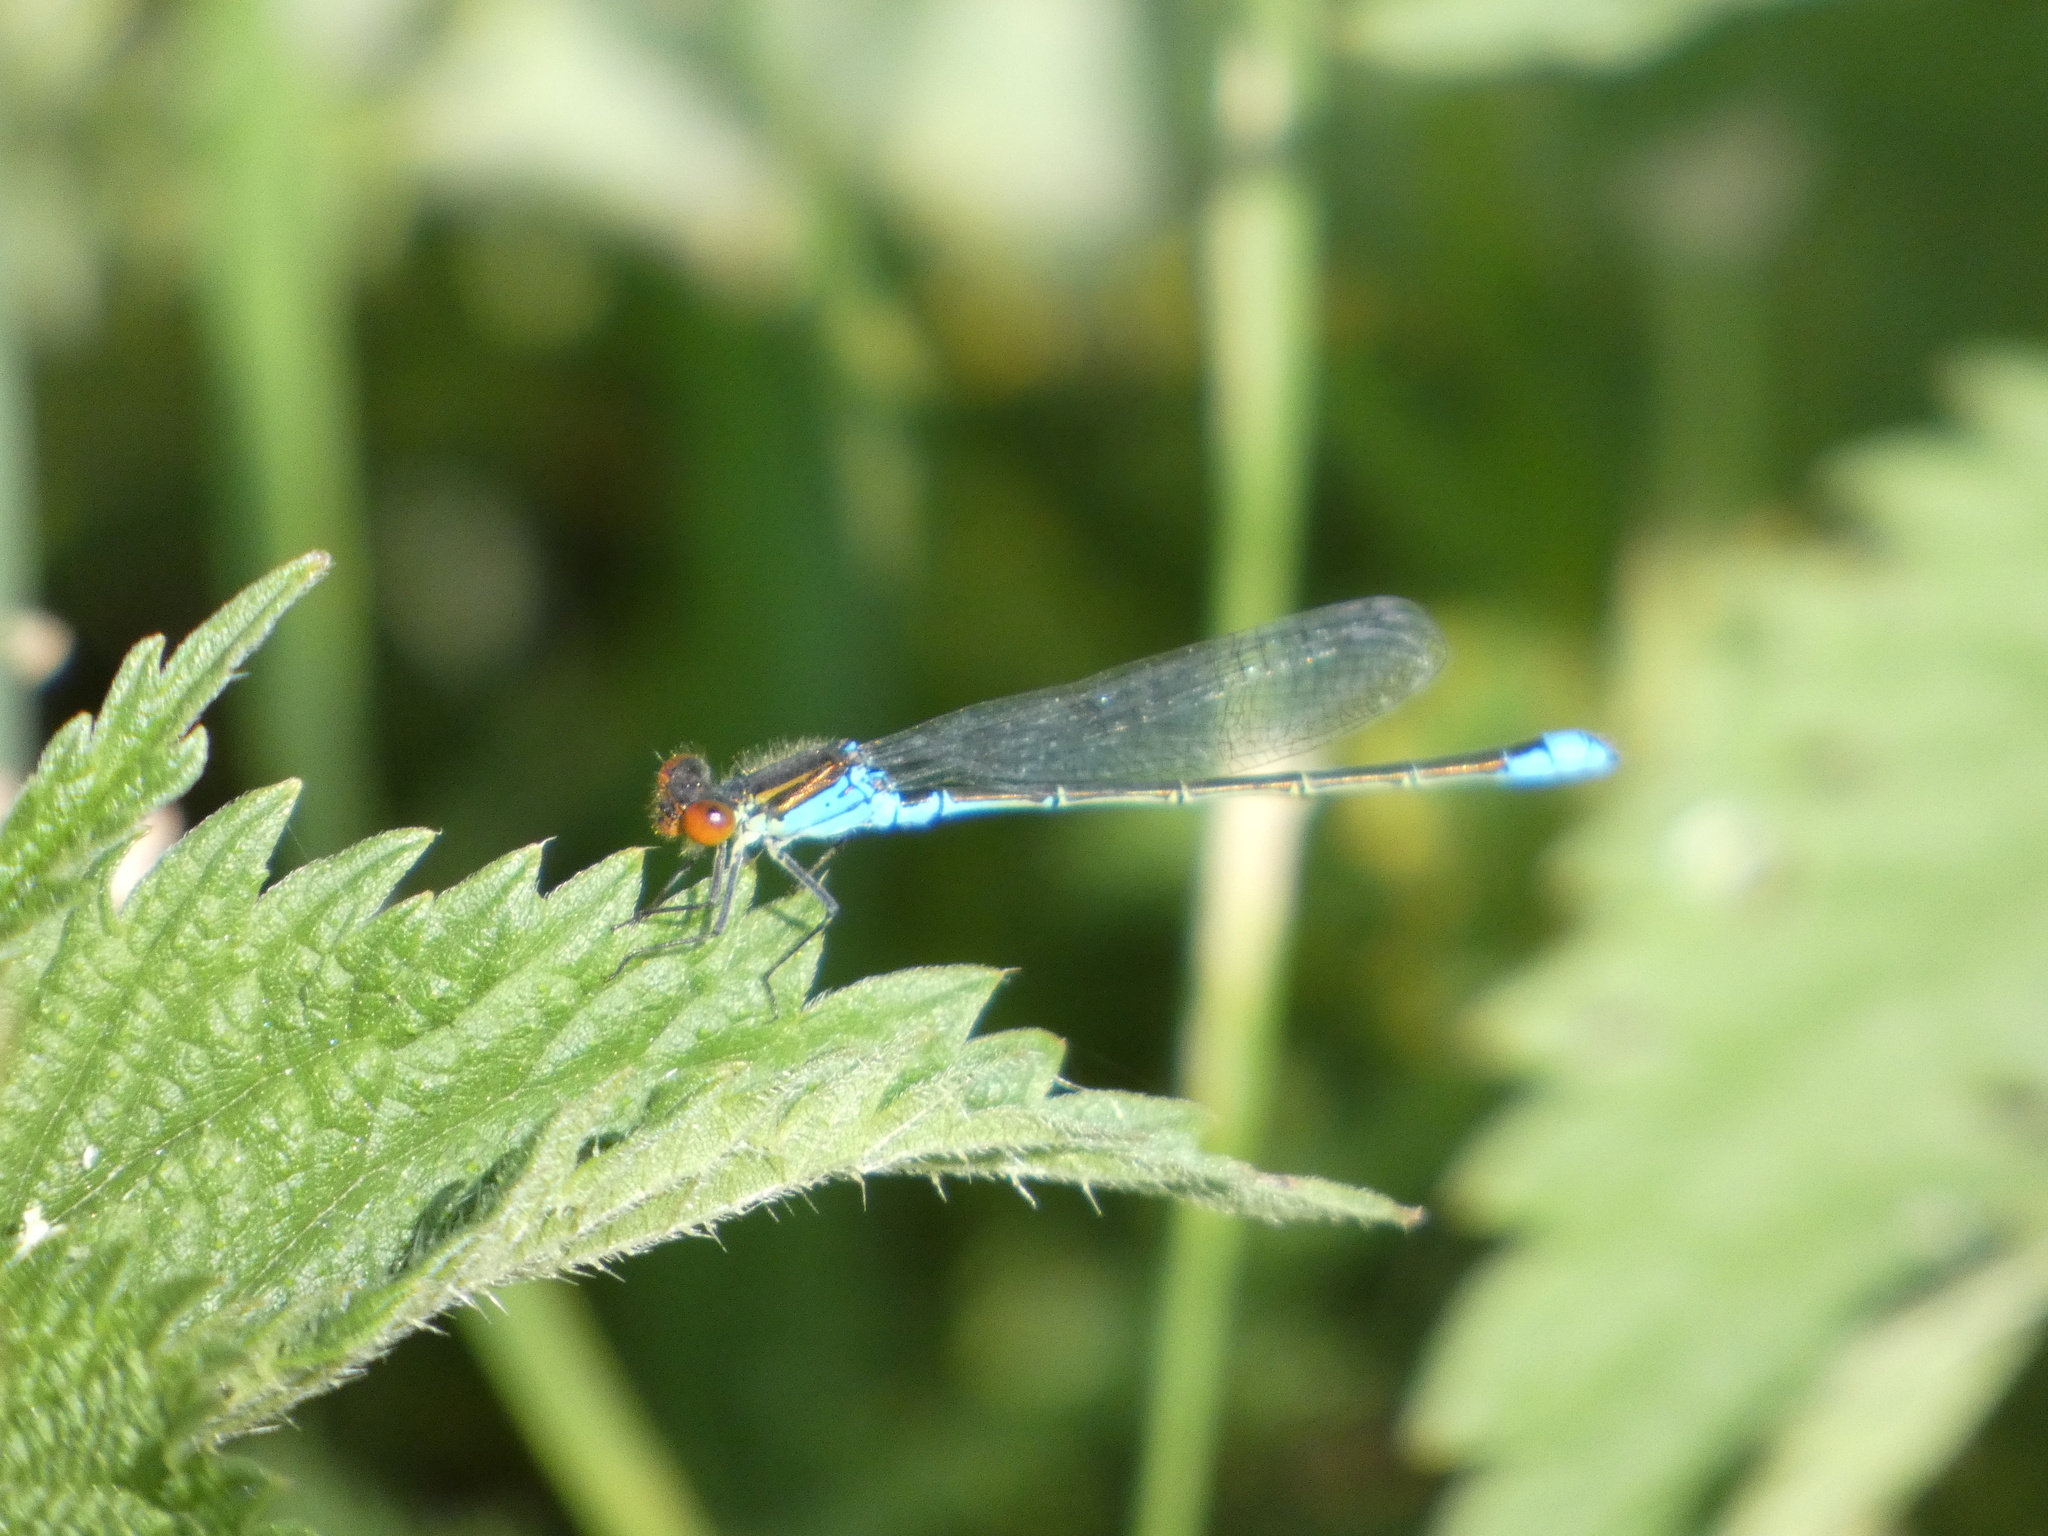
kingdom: Animalia
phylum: Arthropoda
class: Insecta
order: Odonata
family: Coenagrionidae
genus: Erythromma
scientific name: Erythromma viridulum
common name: Small red-eyed damselfly
